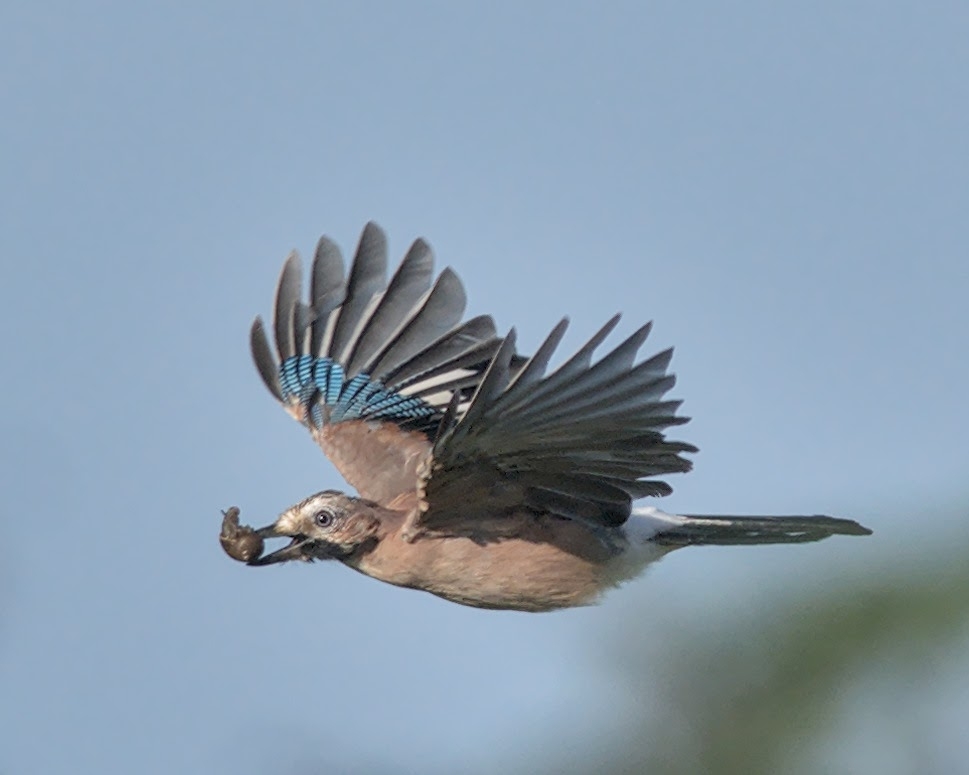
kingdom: Animalia
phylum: Chordata
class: Aves
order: Passeriformes
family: Corvidae
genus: Garrulus
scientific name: Garrulus glandarius
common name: Eurasian jay
